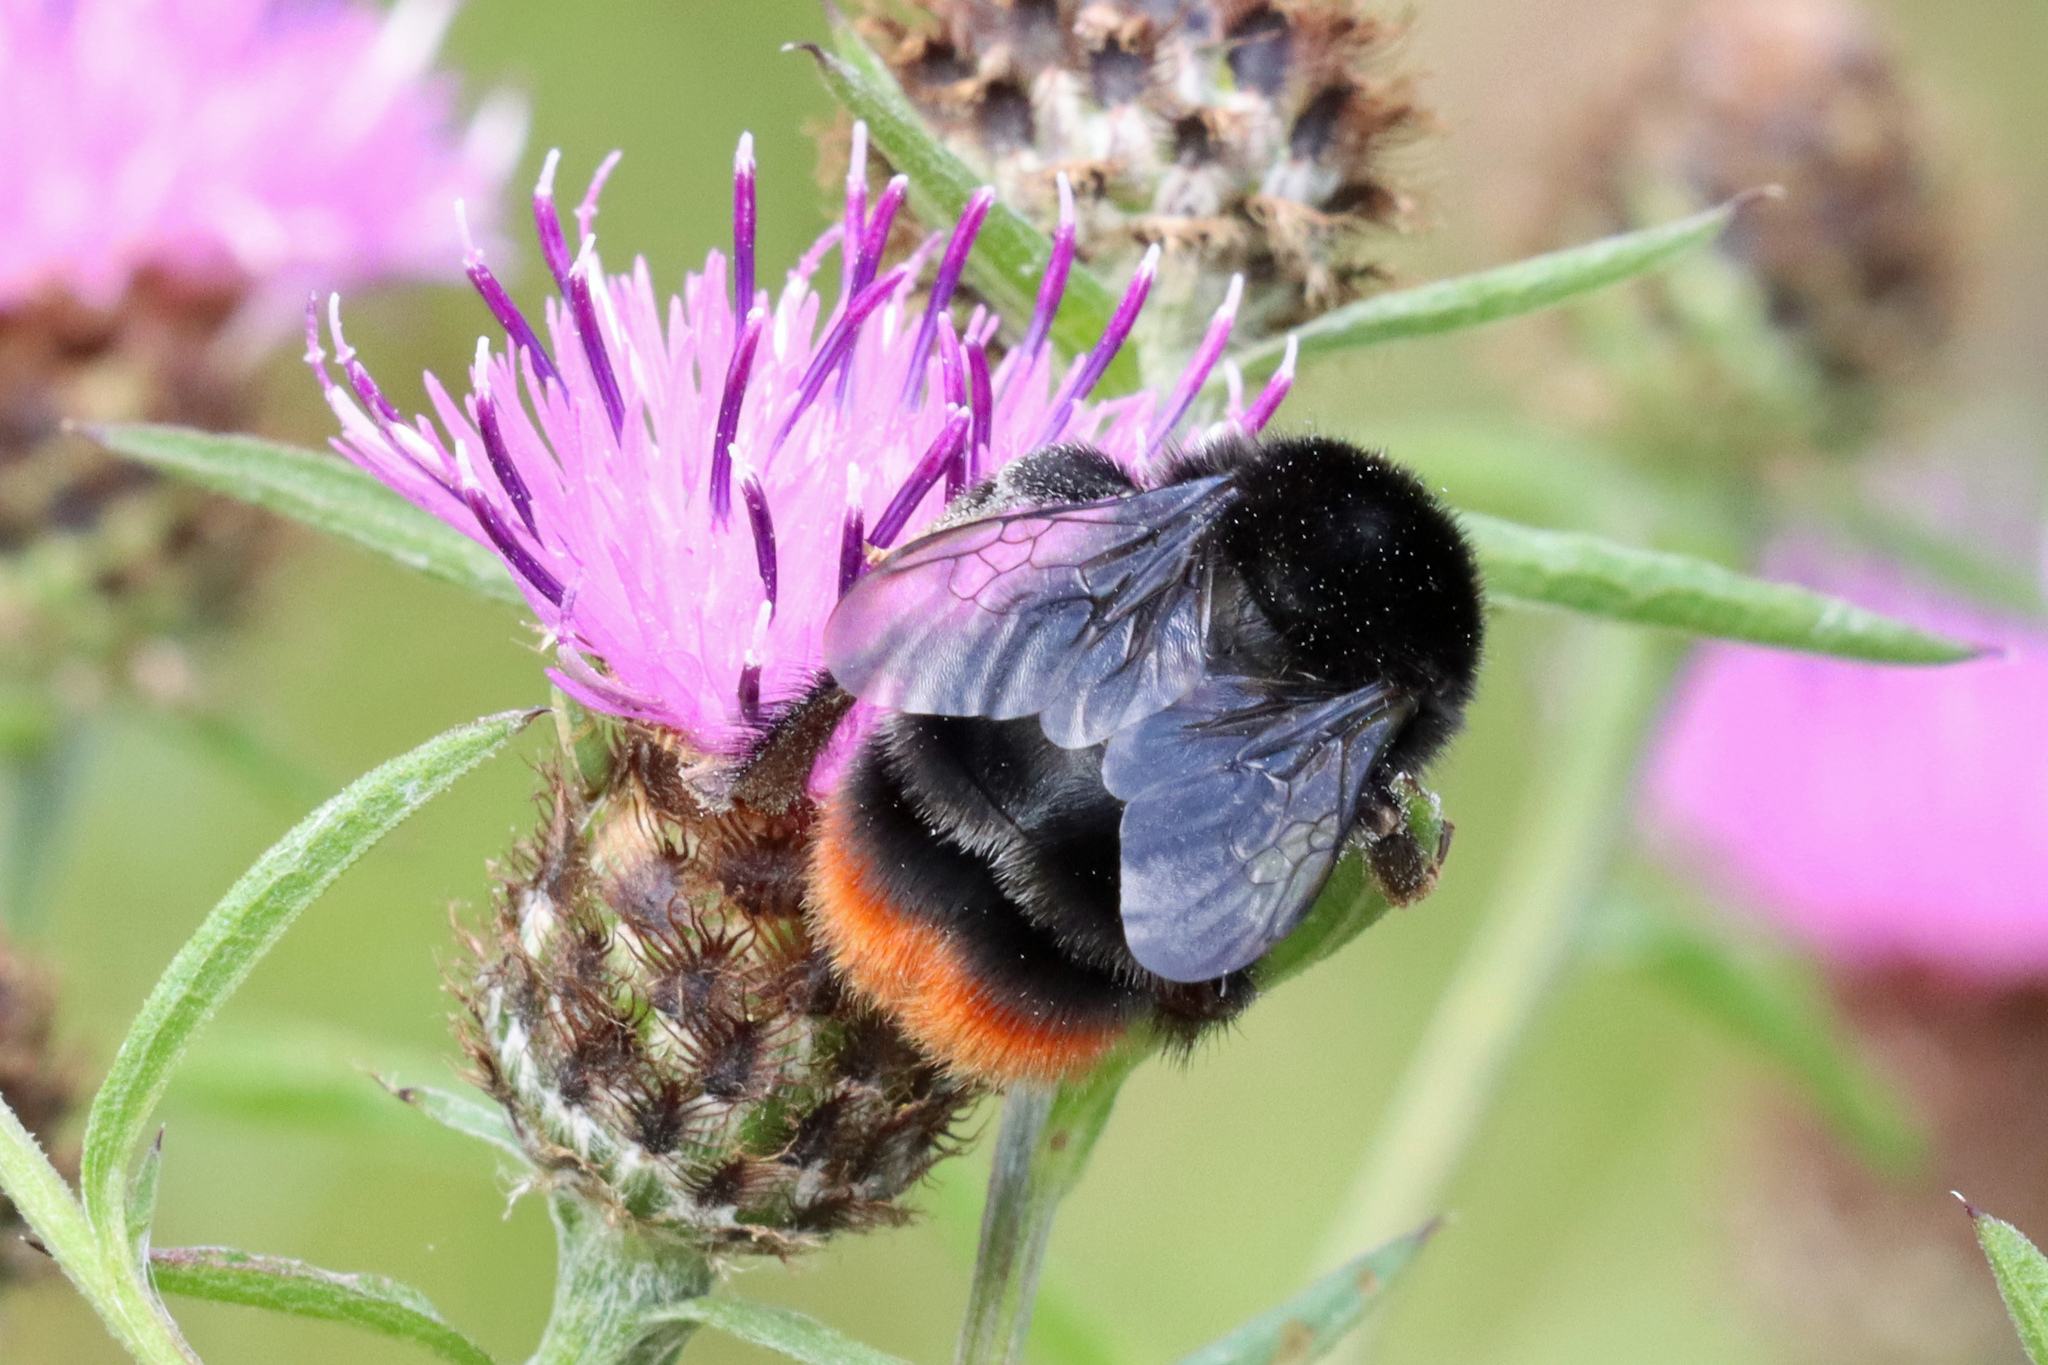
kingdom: Animalia
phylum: Arthropoda
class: Insecta
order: Hymenoptera
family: Apidae
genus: Bombus
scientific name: Bombus lapidarius
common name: Large red-tailed humble-bee
